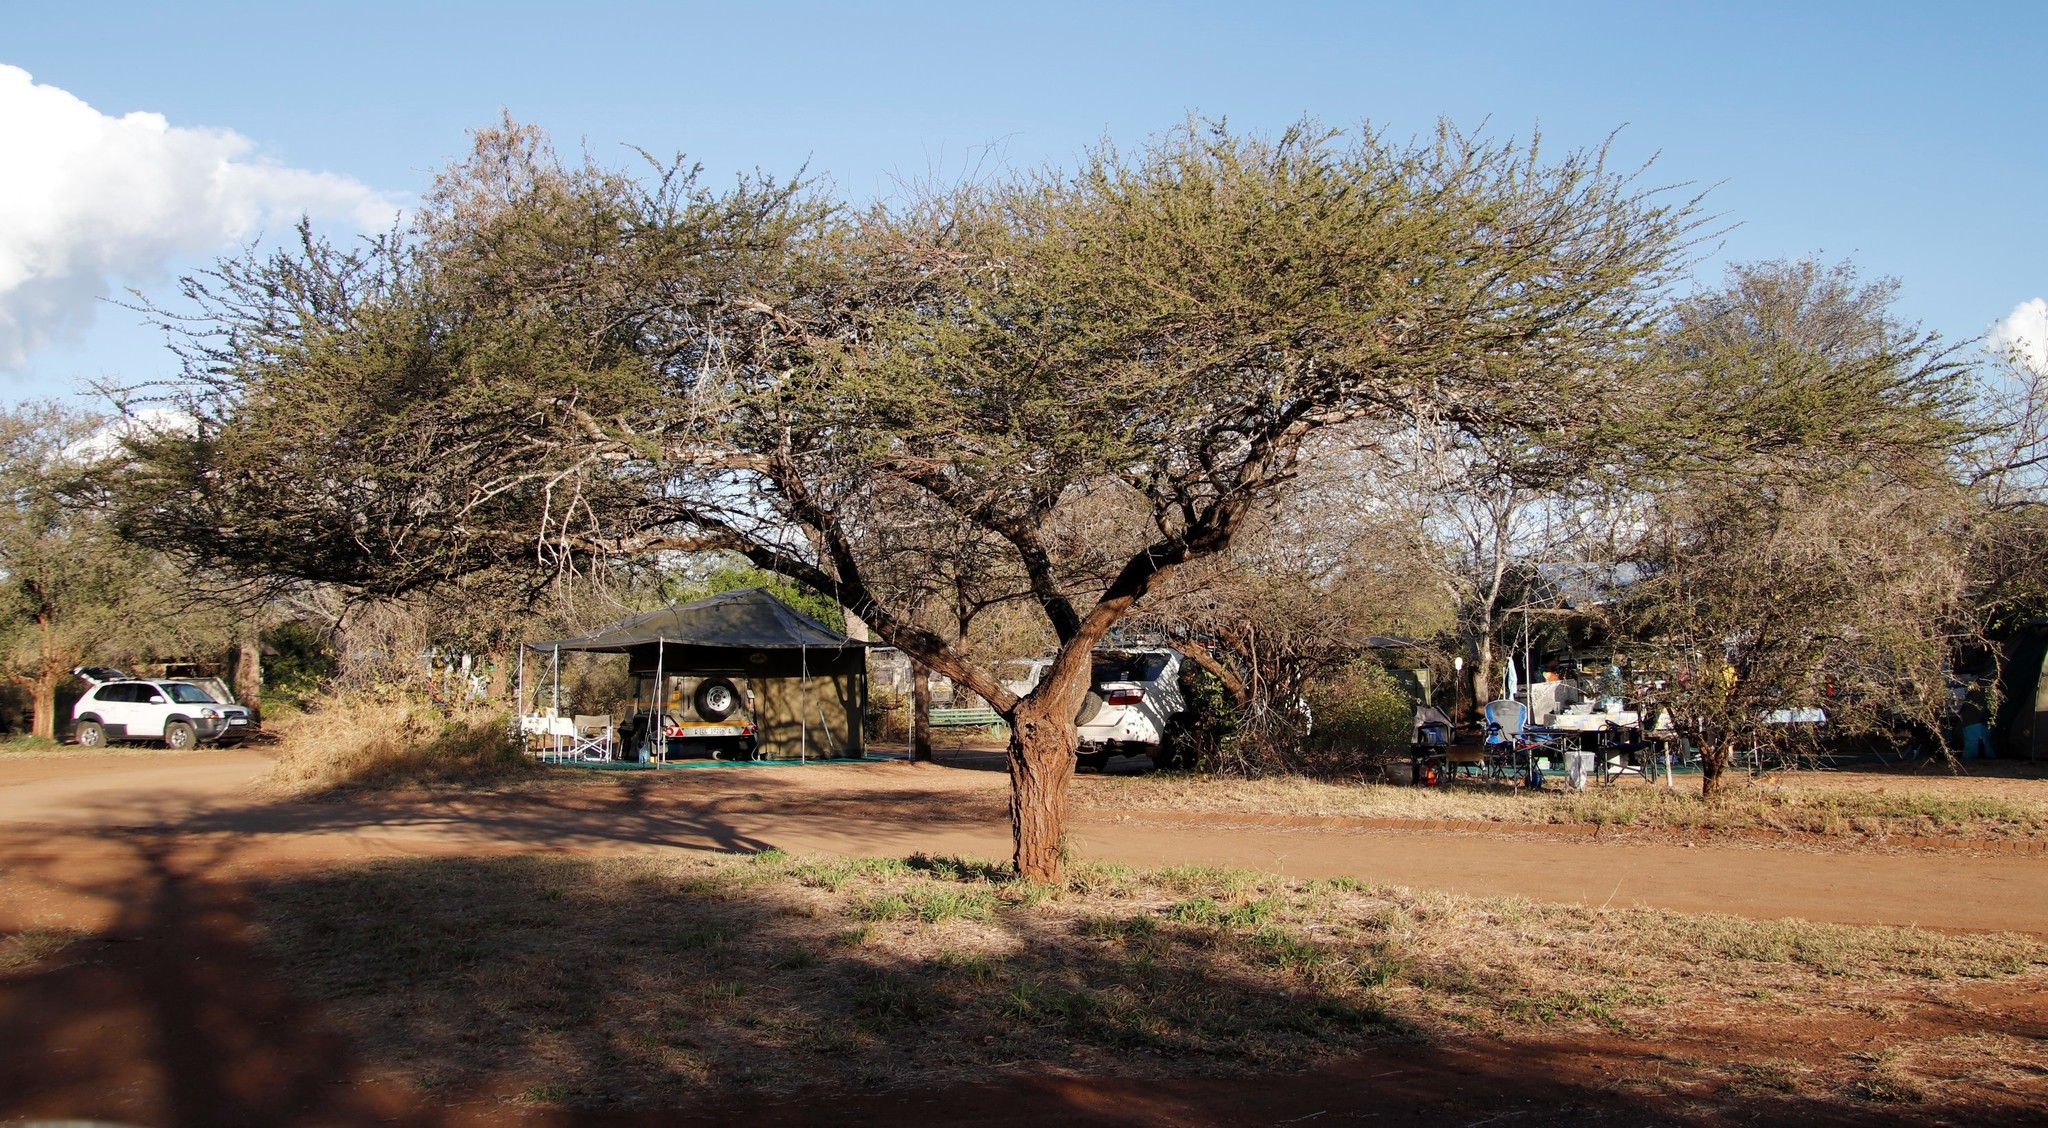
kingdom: Plantae
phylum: Tracheophyta
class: Magnoliopsida
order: Fabales
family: Fabaceae
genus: Vachellia
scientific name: Vachellia tortilis
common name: Umbrella thorn acacia
